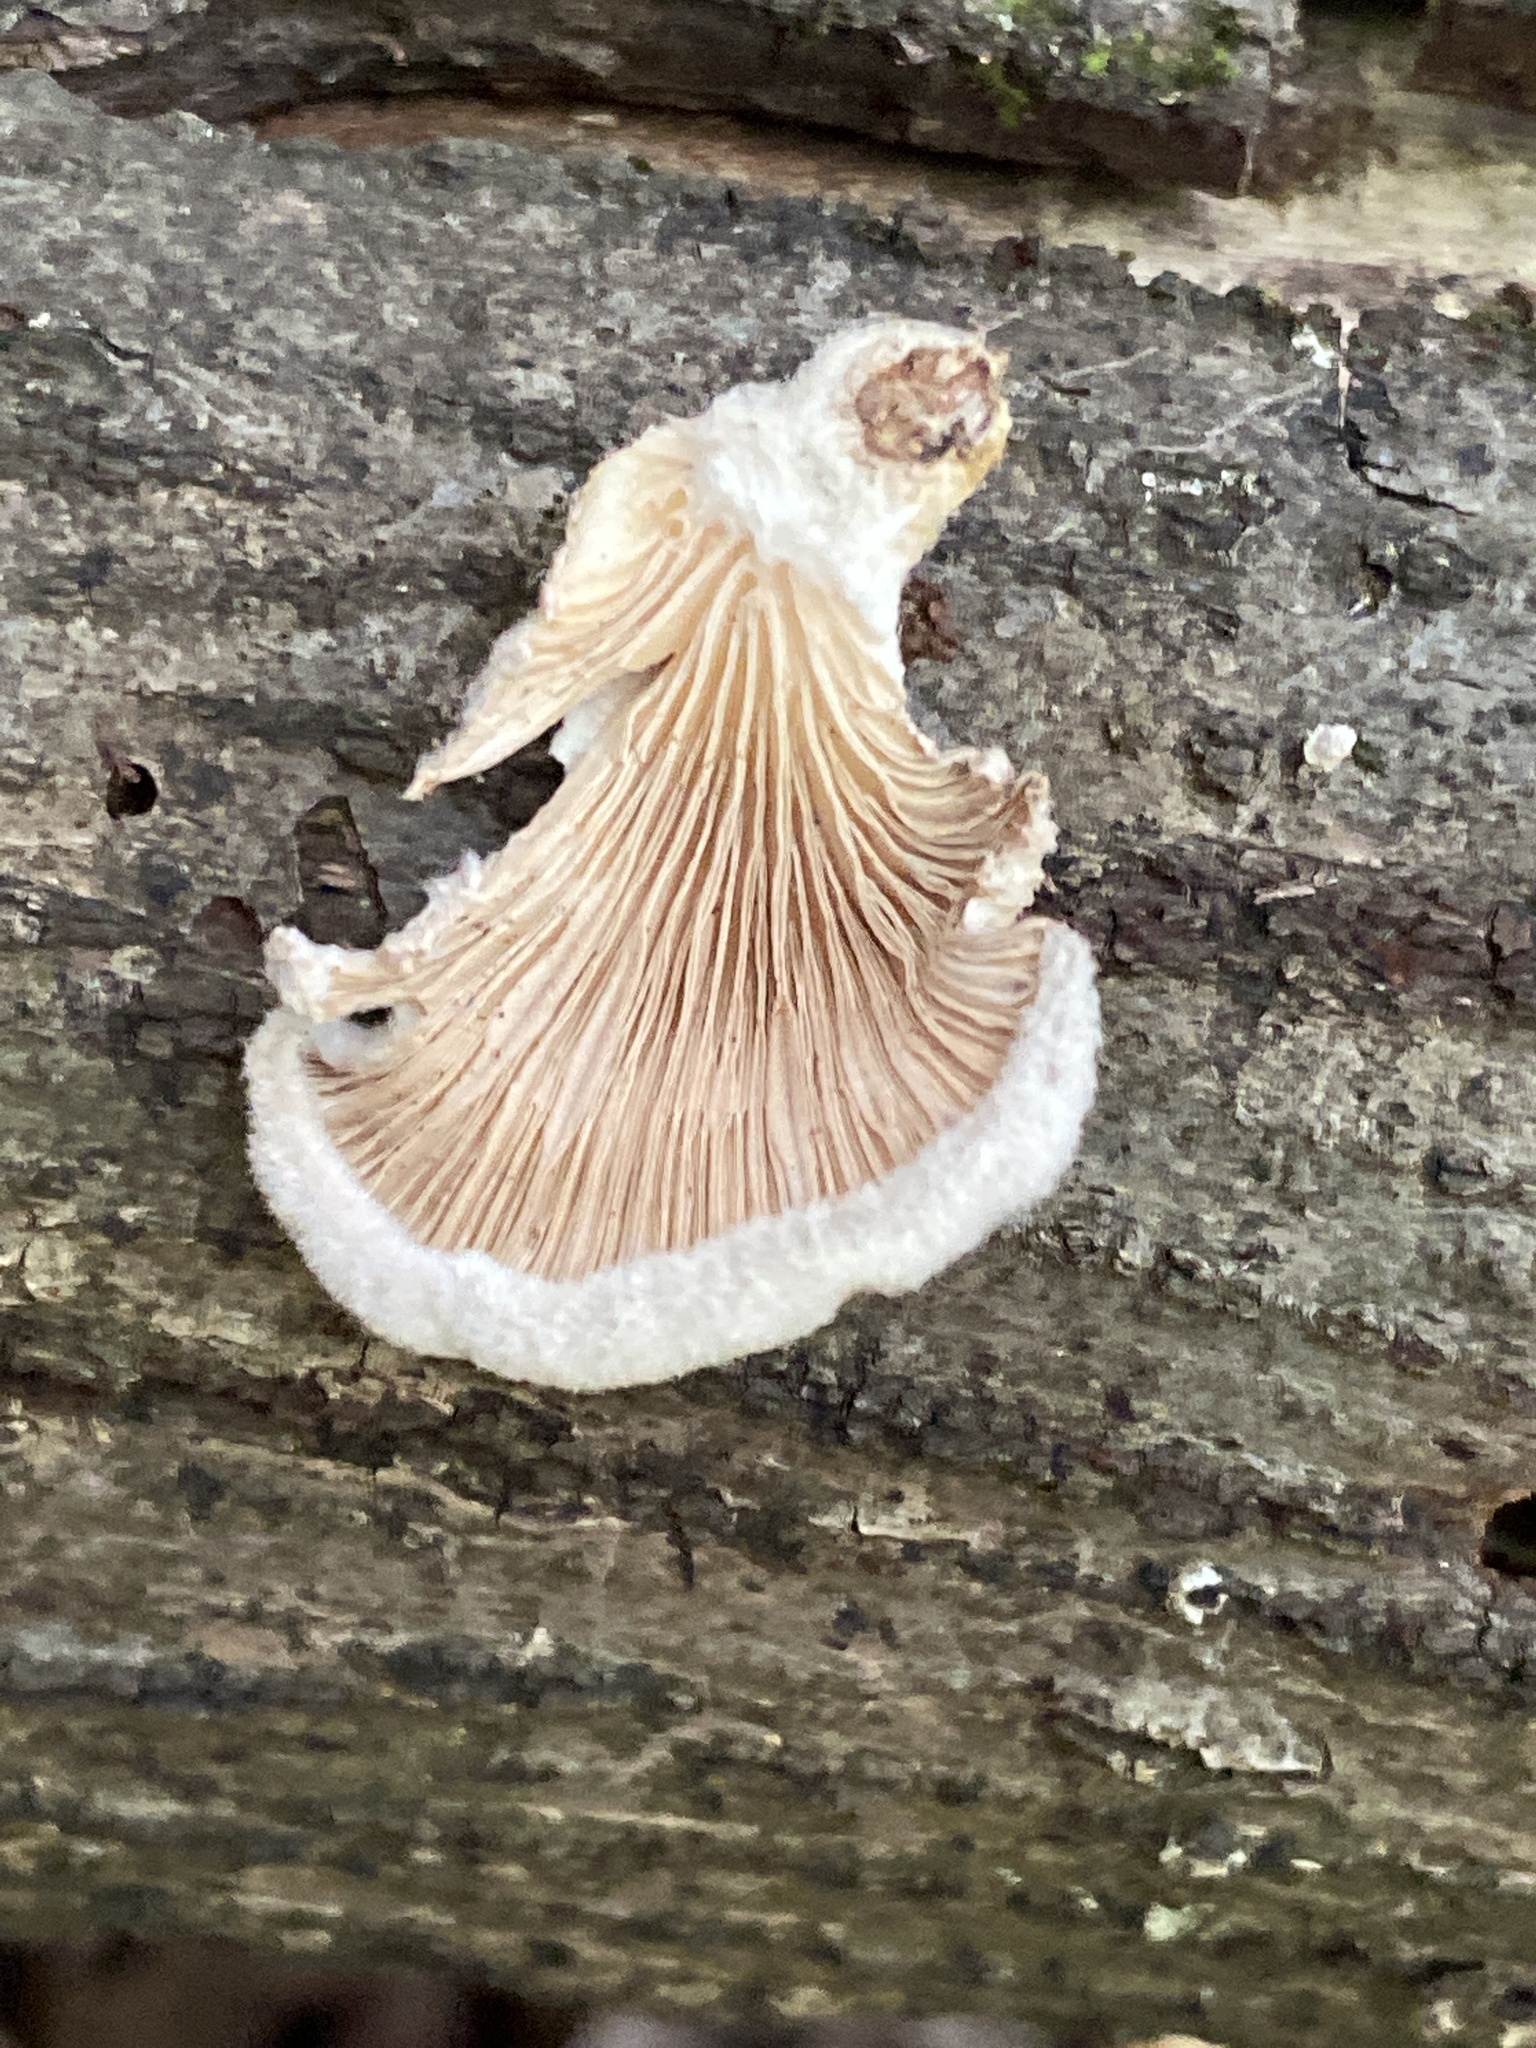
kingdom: Fungi
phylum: Basidiomycota
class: Agaricomycetes
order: Agaricales
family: Schizophyllaceae
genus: Schizophyllum
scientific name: Schizophyllum commune
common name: Common porecrust
